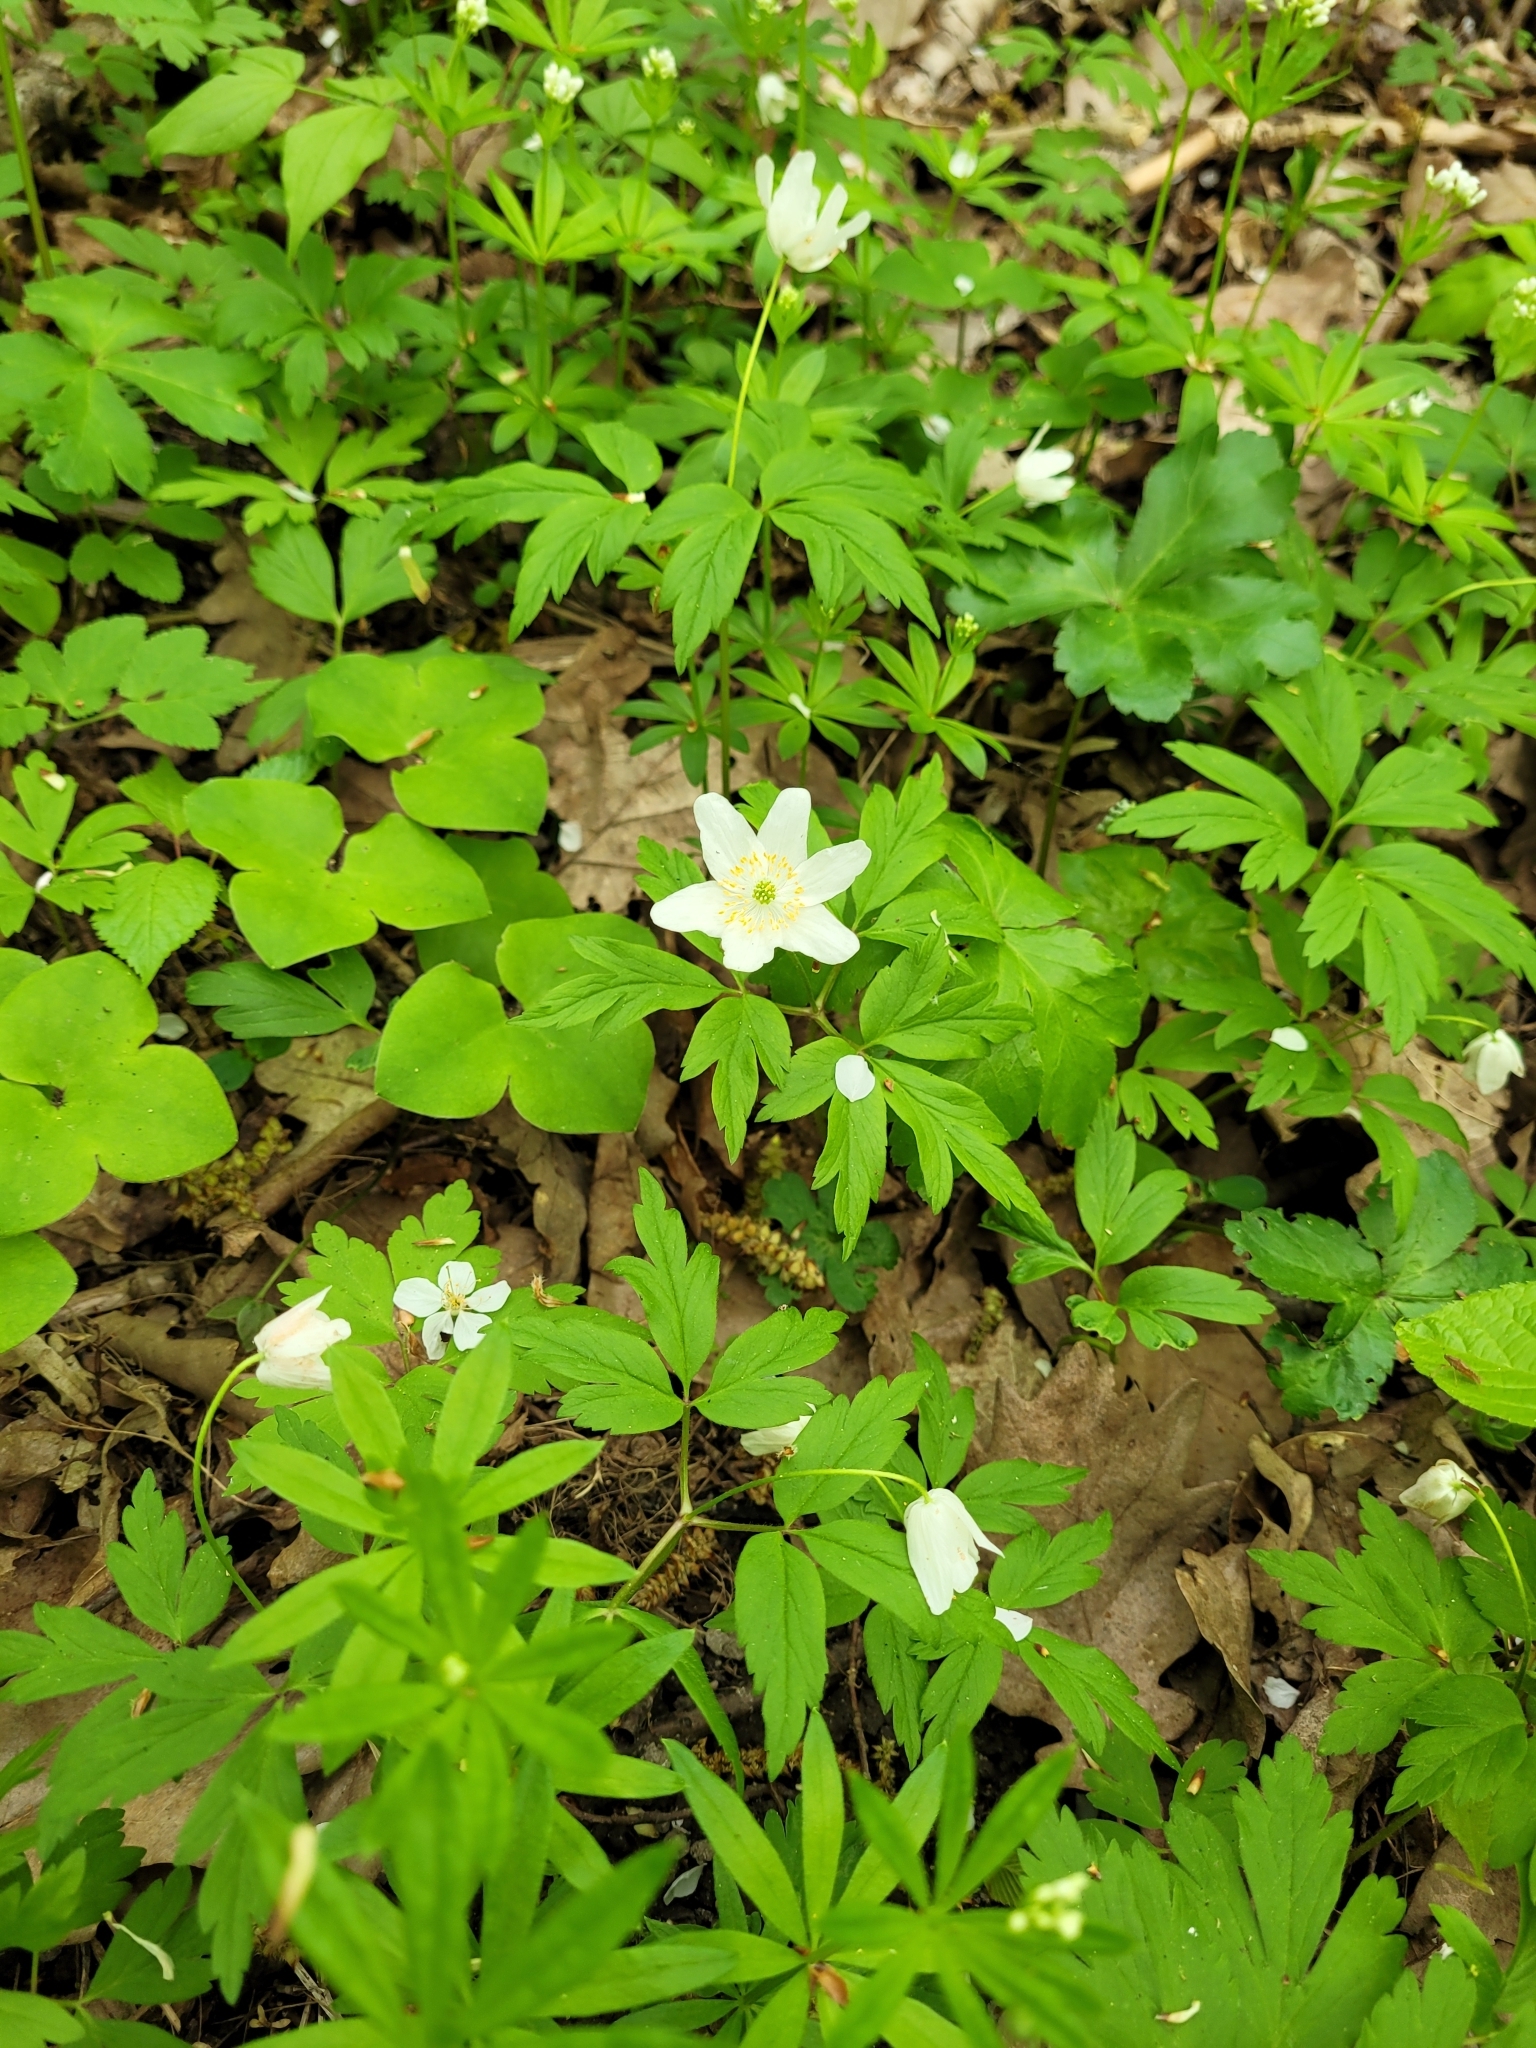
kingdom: Plantae
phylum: Tracheophyta
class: Magnoliopsida
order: Ranunculales
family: Ranunculaceae
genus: Anemone
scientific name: Anemone nemorosa
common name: Wood anemone
